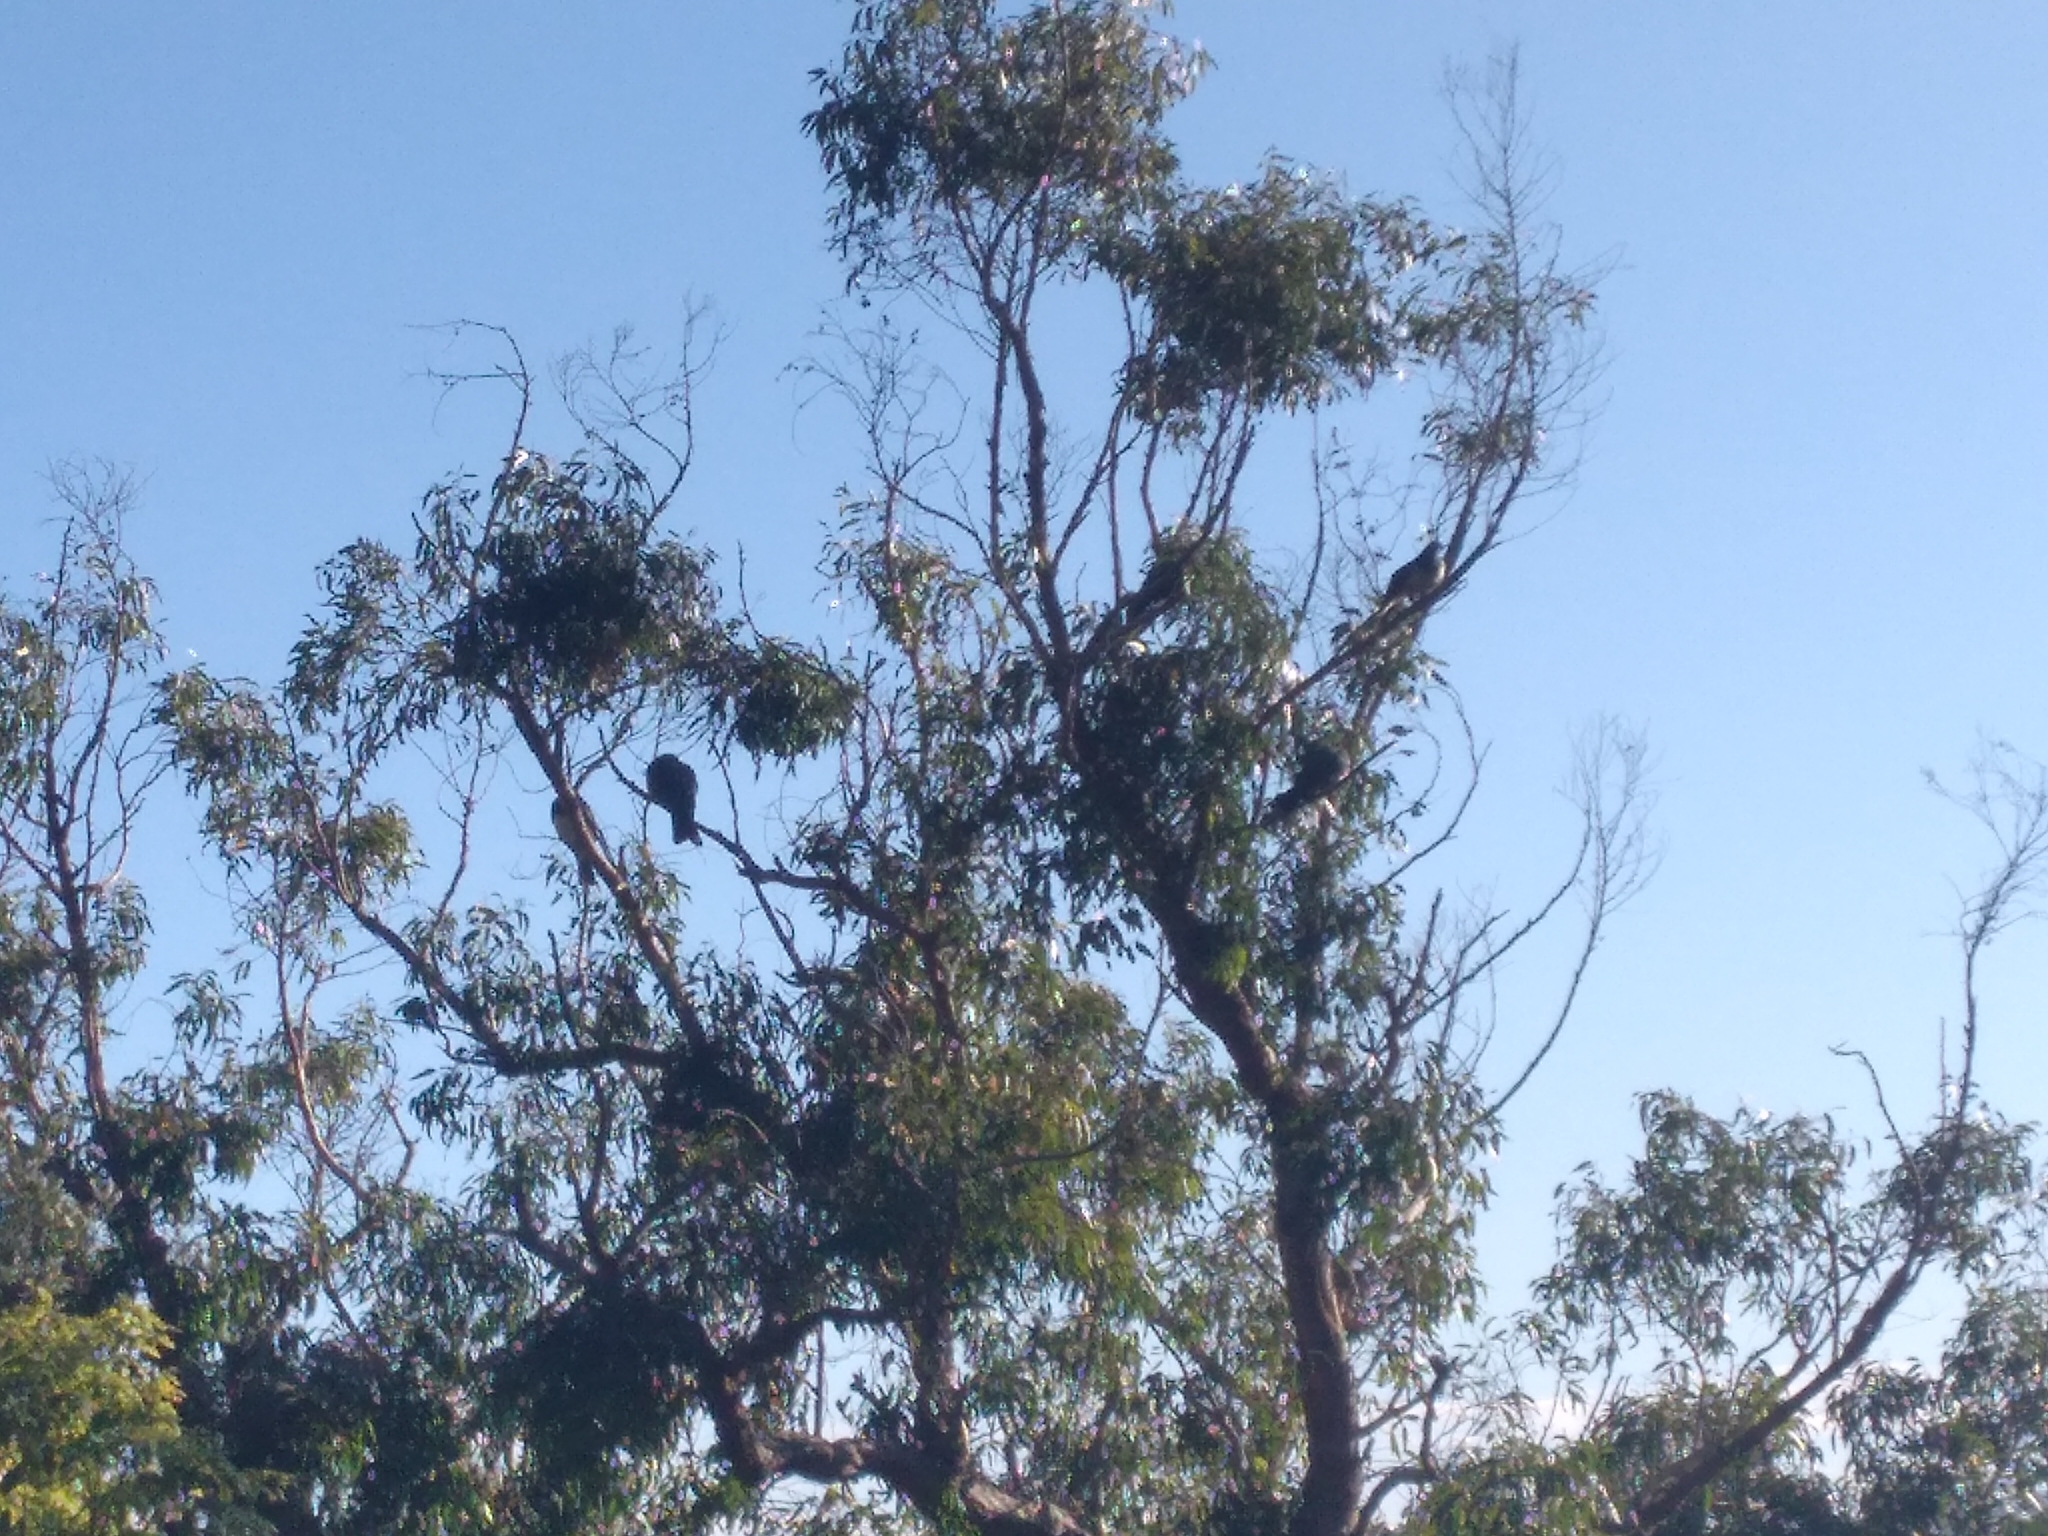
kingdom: Animalia
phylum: Chordata
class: Aves
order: Columbiformes
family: Columbidae
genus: Hemiphaga
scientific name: Hemiphaga novaeseelandiae
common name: New zealand pigeon
